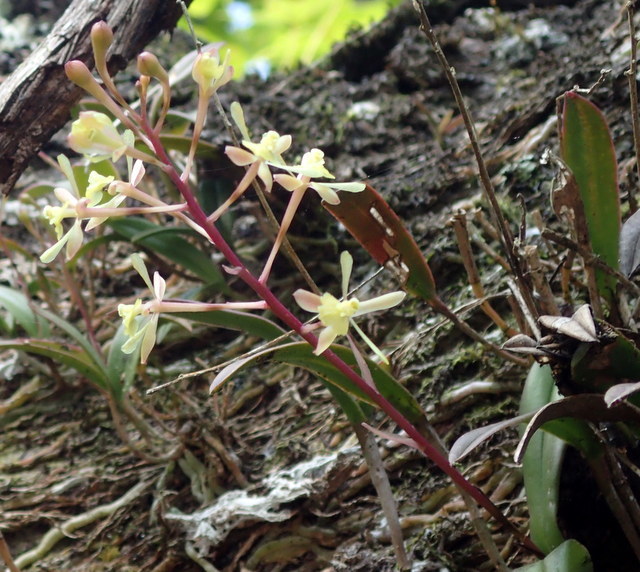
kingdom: Plantae
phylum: Tracheophyta
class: Liliopsida
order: Asparagales
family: Orchidaceae
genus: Epidendrum
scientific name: Epidendrum conopseum
